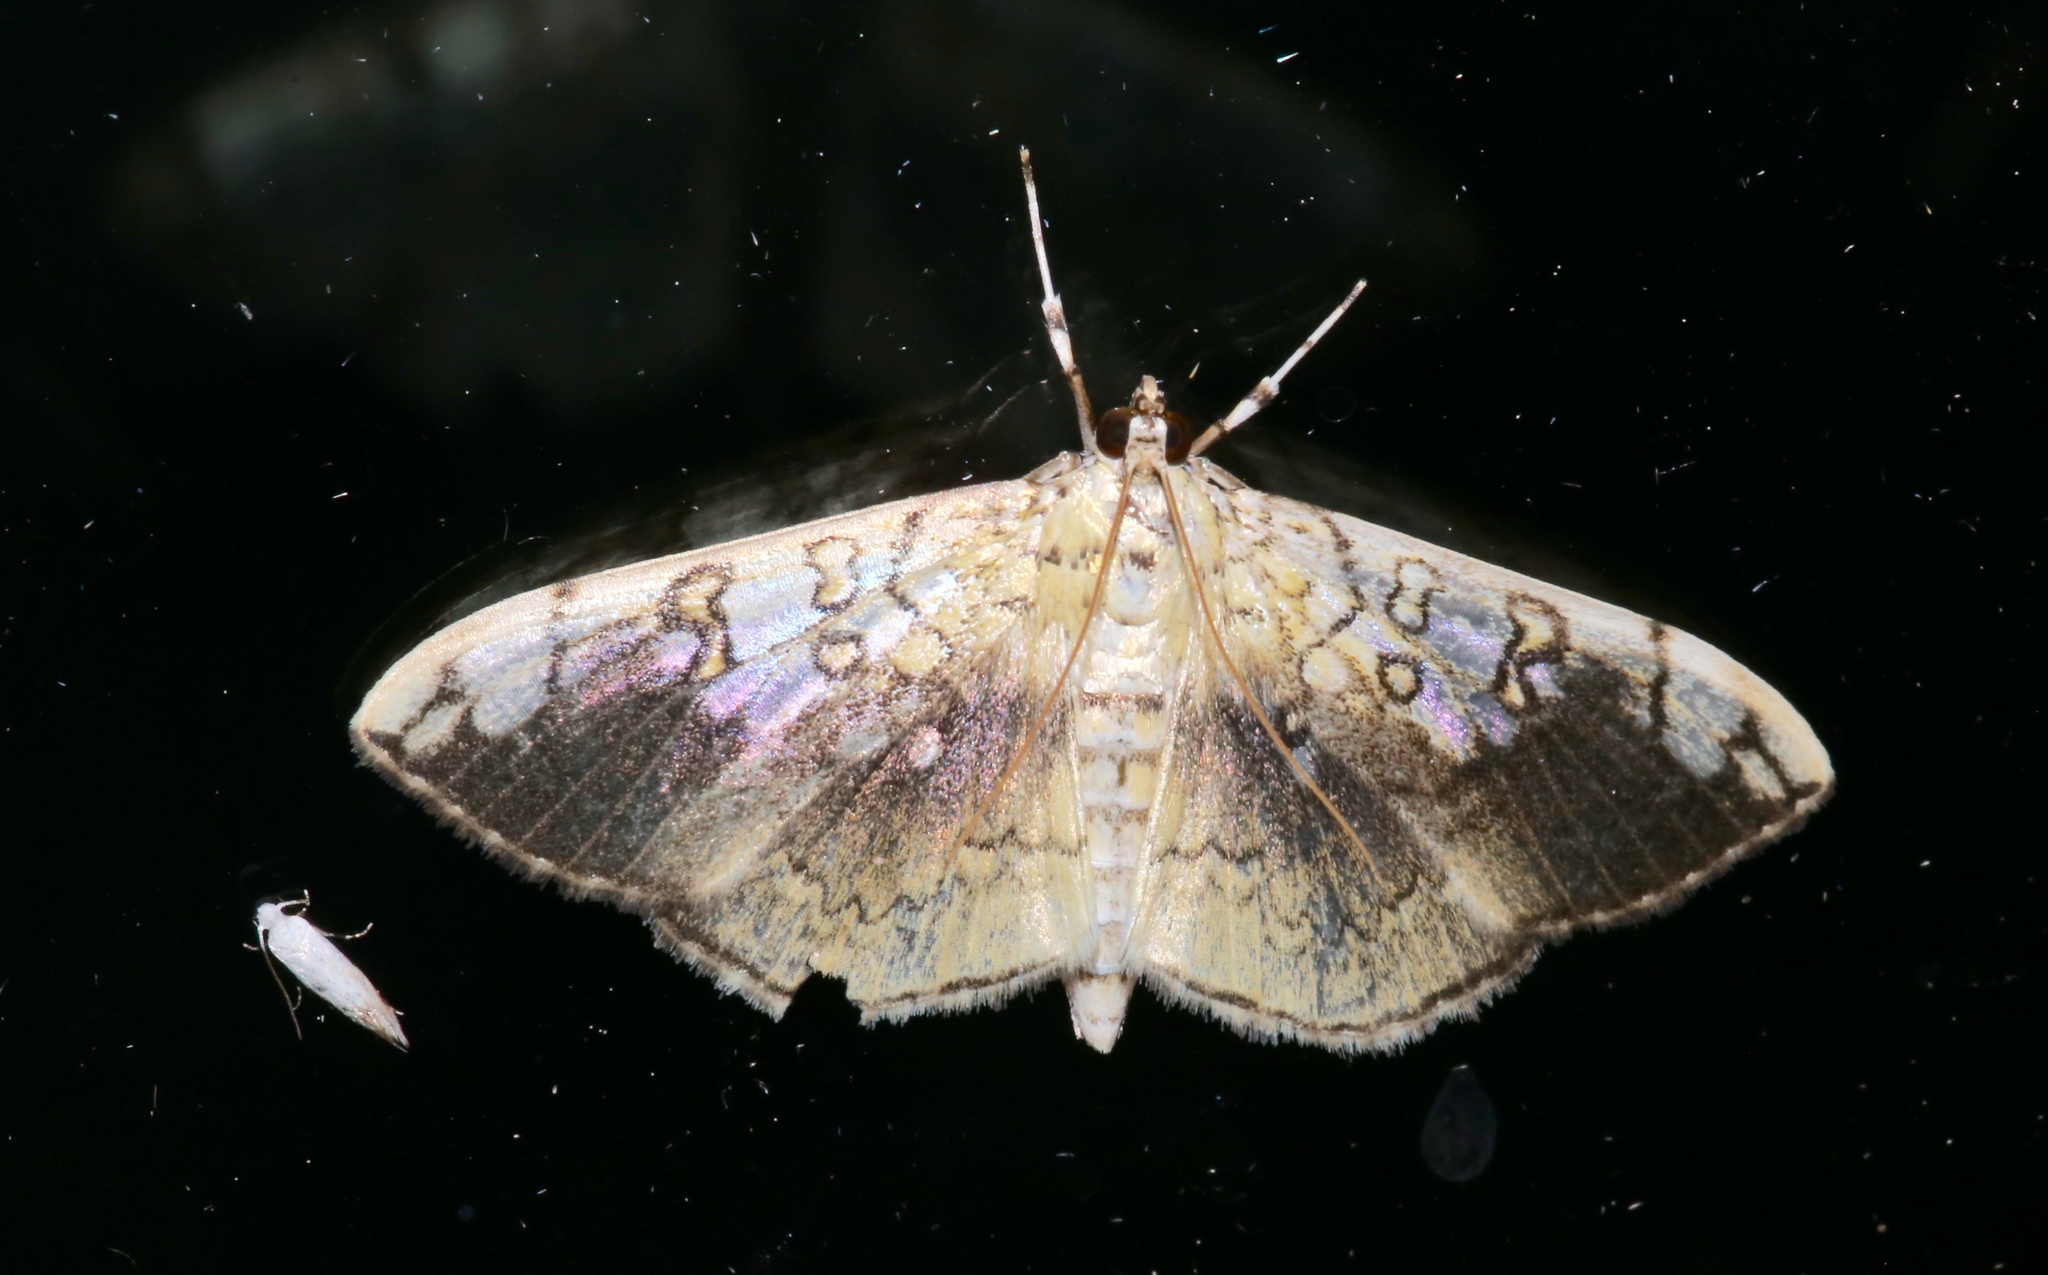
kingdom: Animalia
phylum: Arthropoda
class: Insecta
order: Lepidoptera
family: Crambidae
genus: Pantographa
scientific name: Pantographa limata
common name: Basswood leafroller moth
